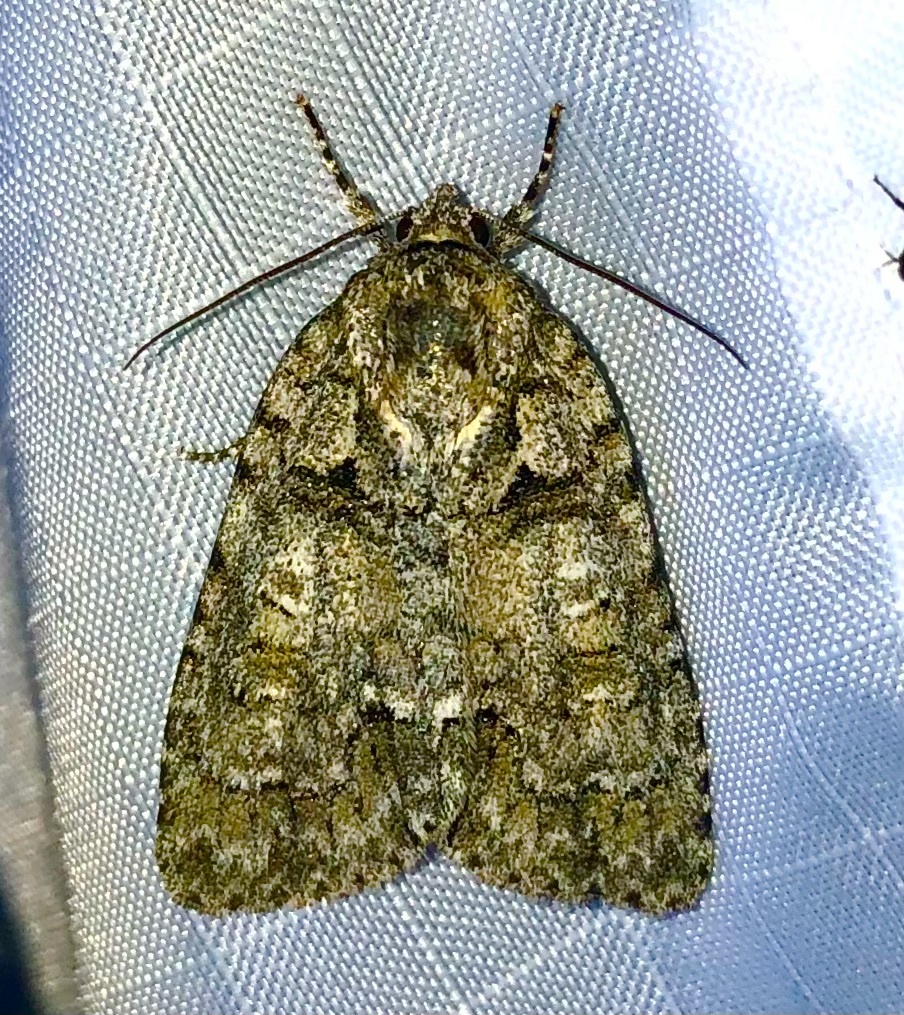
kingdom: Animalia
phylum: Arthropoda
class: Insecta
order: Lepidoptera
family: Noctuidae
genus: Acronicta
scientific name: Acronicta ovata
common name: Epauleted oak dagger
